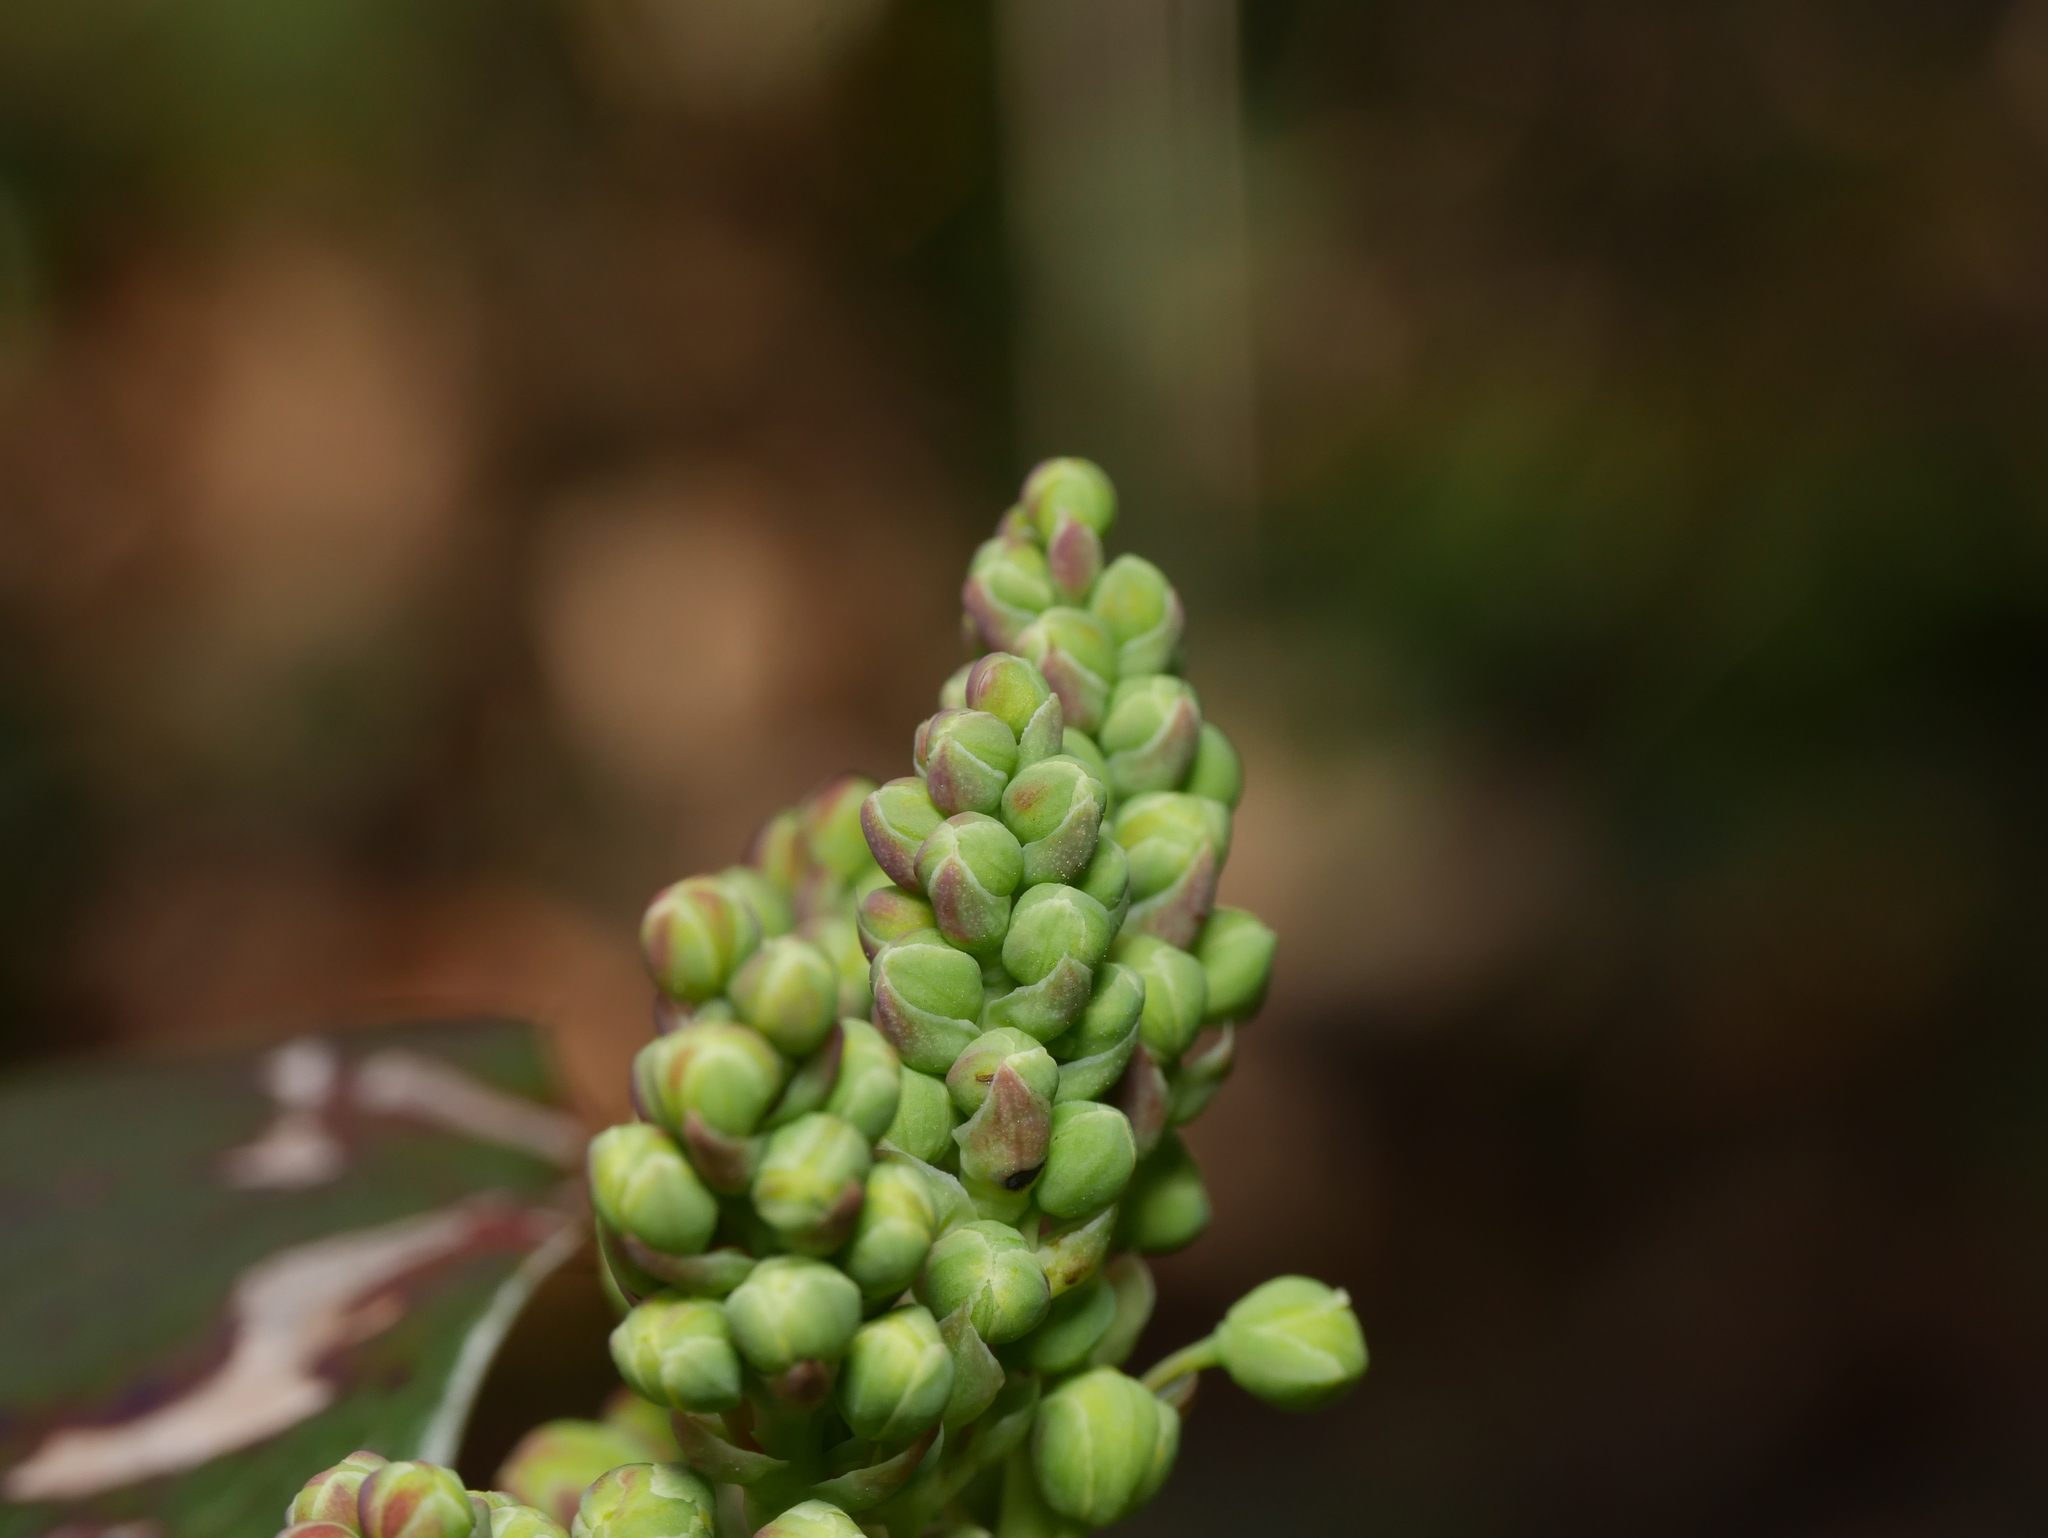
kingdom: Plantae
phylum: Tracheophyta
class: Magnoliopsida
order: Ranunculales
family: Berberidaceae
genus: Mahonia
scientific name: Mahonia aquifolium
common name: Oregon-grape
